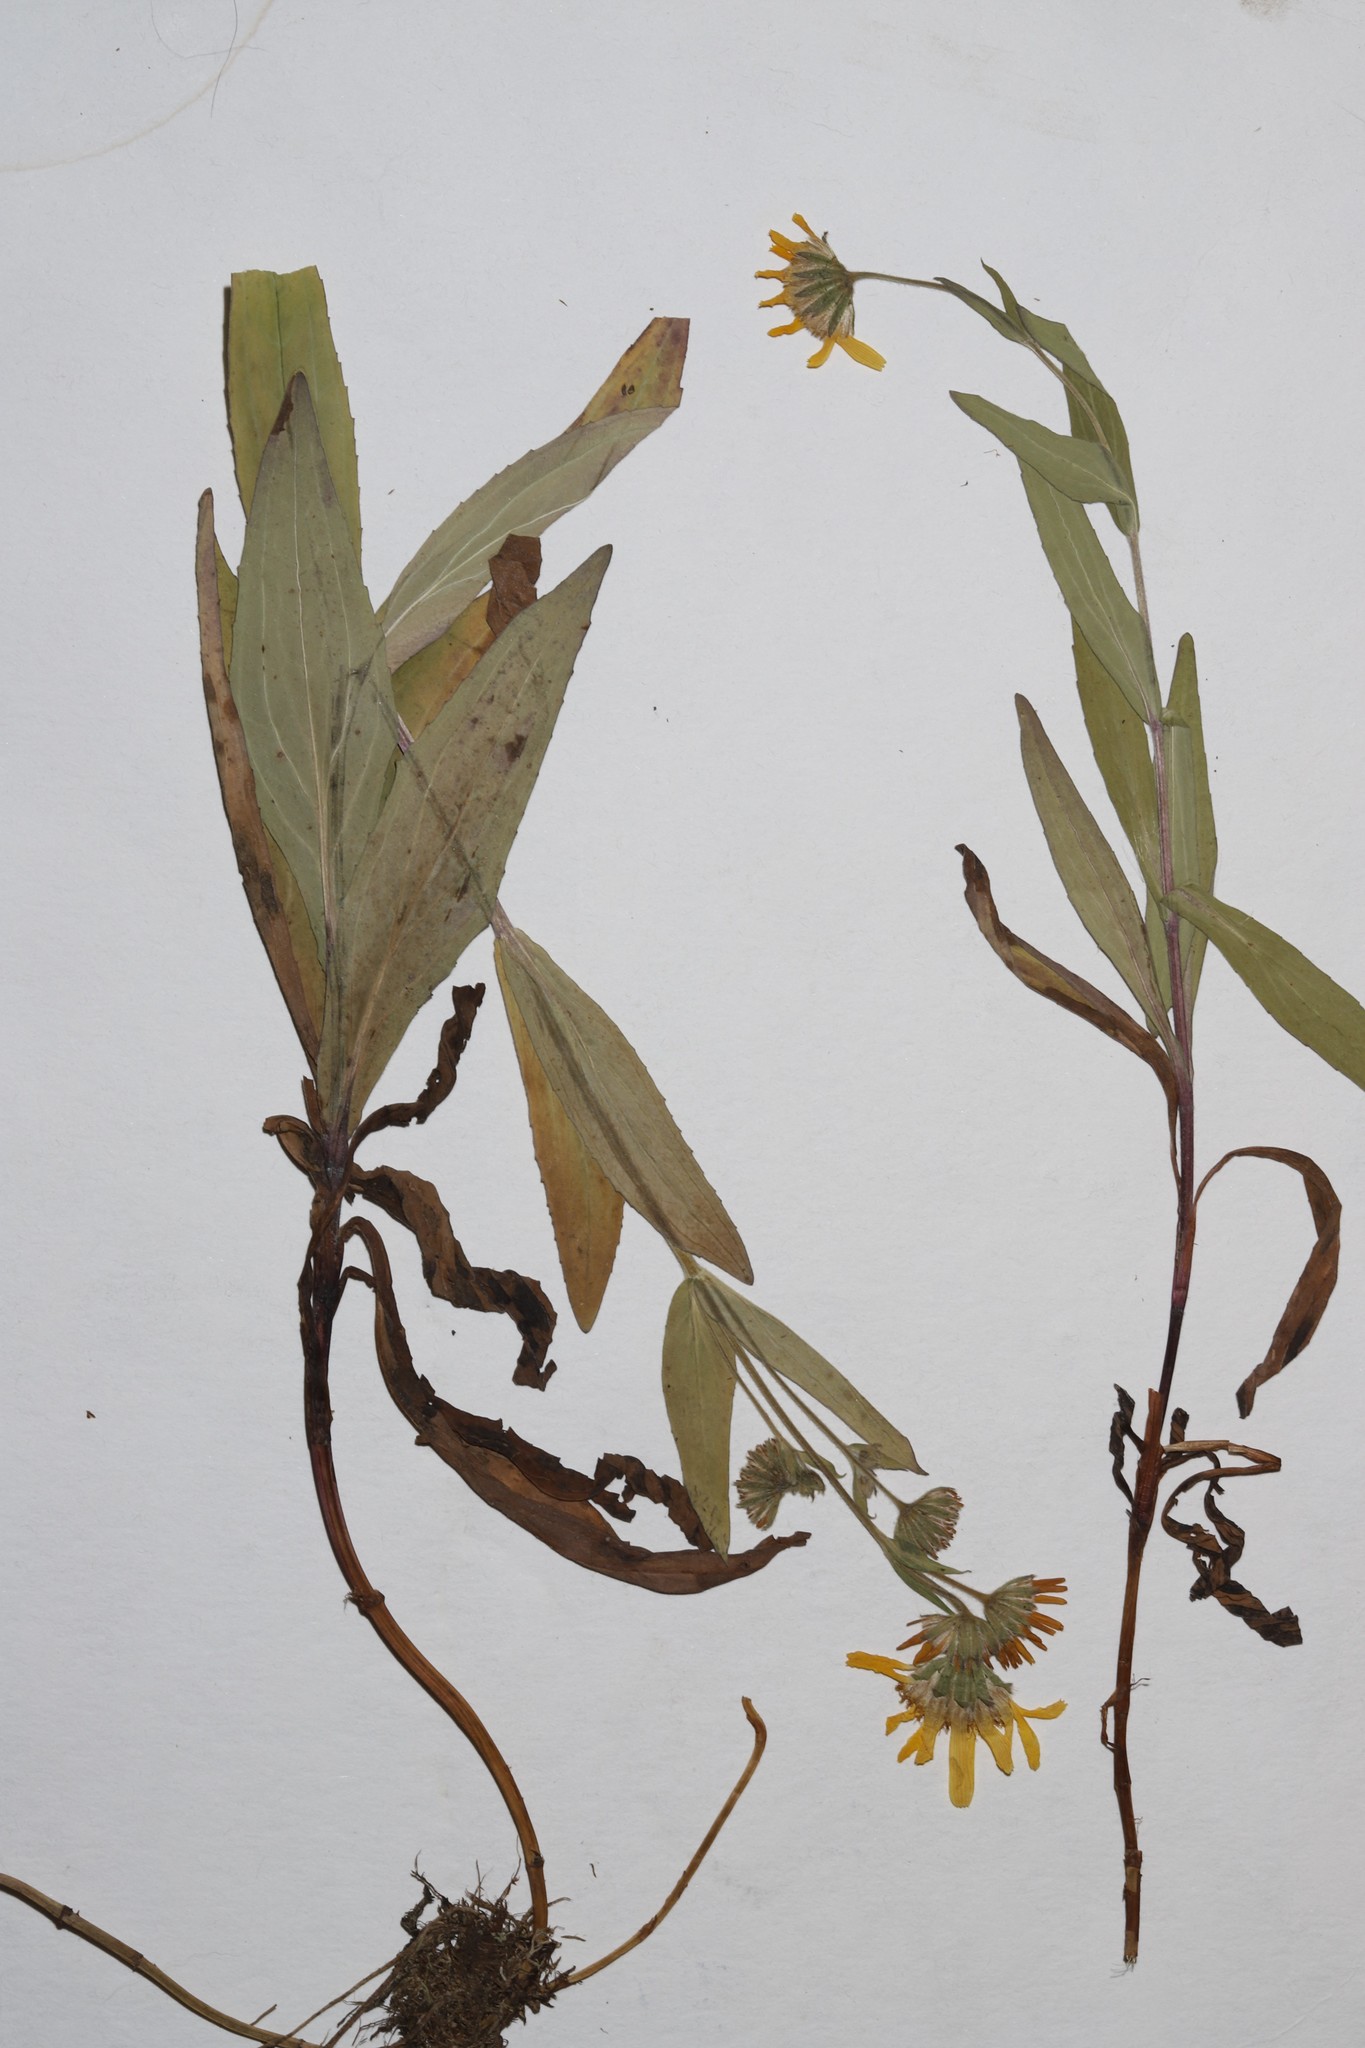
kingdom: Plantae
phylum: Tracheophyta
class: Magnoliopsida
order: Asterales
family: Asteraceae
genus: Arnica
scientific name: Arnica chamissonis
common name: Leafy arnica
